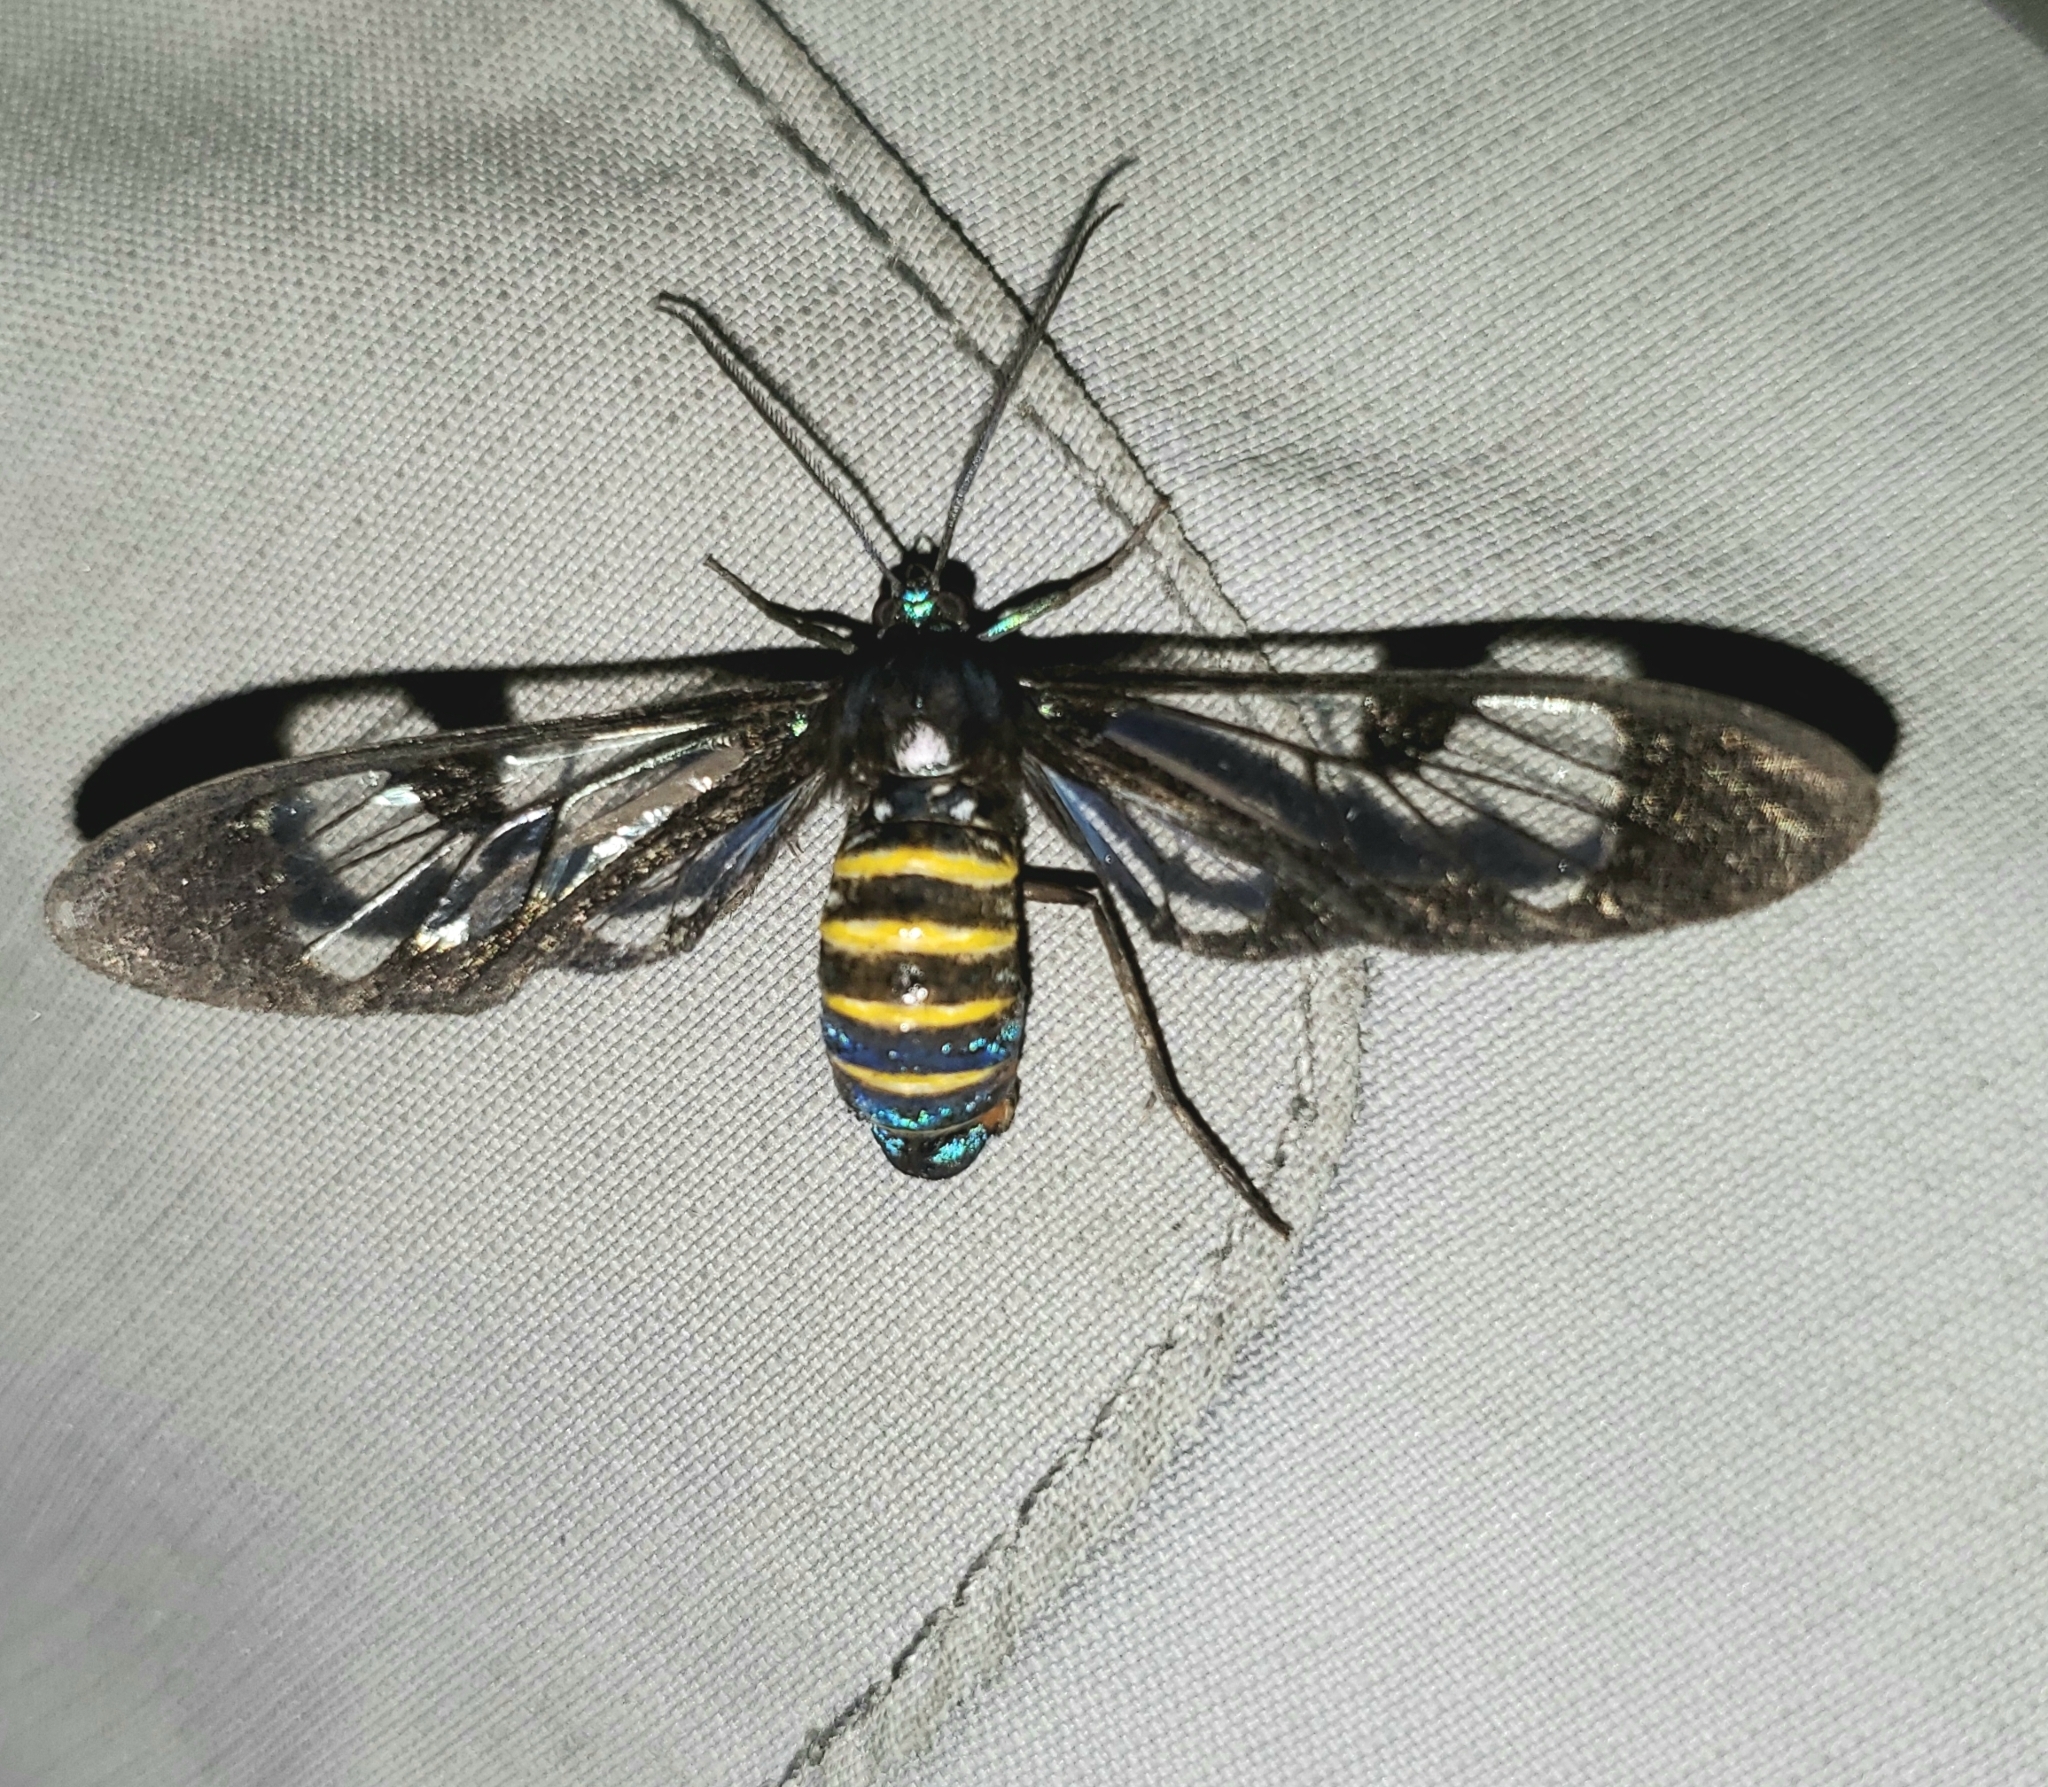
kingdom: Animalia
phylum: Arthropoda
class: Insecta
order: Lepidoptera
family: Erebidae
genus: Gymnelia
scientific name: Gymnelia nobilis
